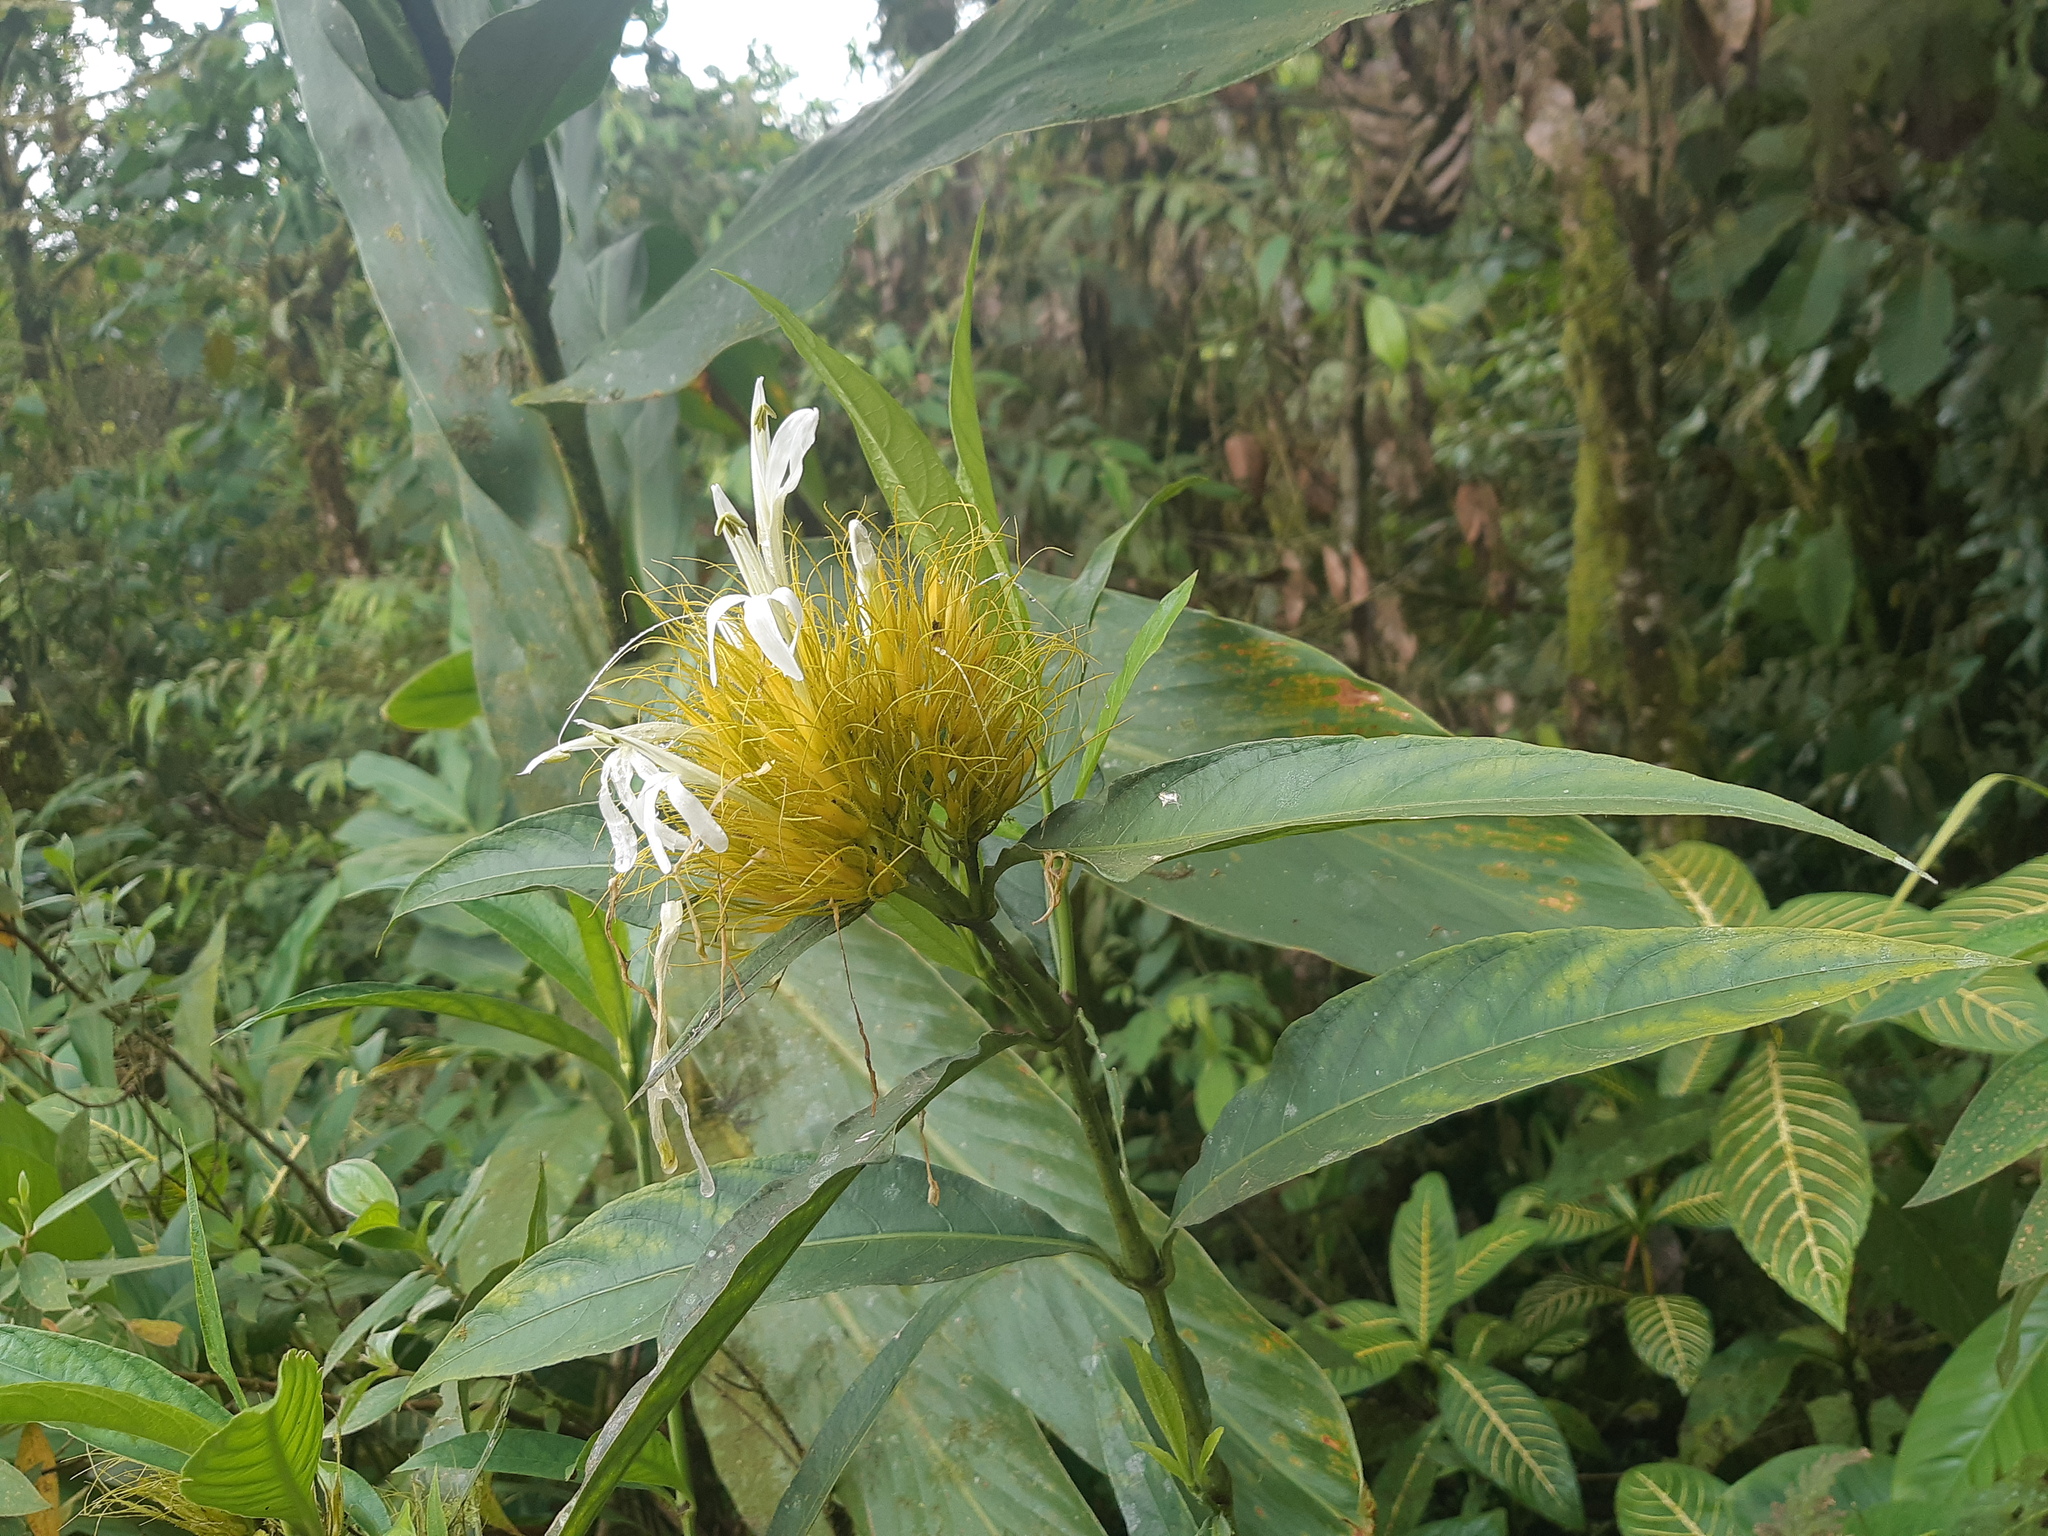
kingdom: Plantae
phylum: Tracheophyta
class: Magnoliopsida
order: Lamiales
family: Acanthaceae
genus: Justicia
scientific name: Justicia croceochlamys
